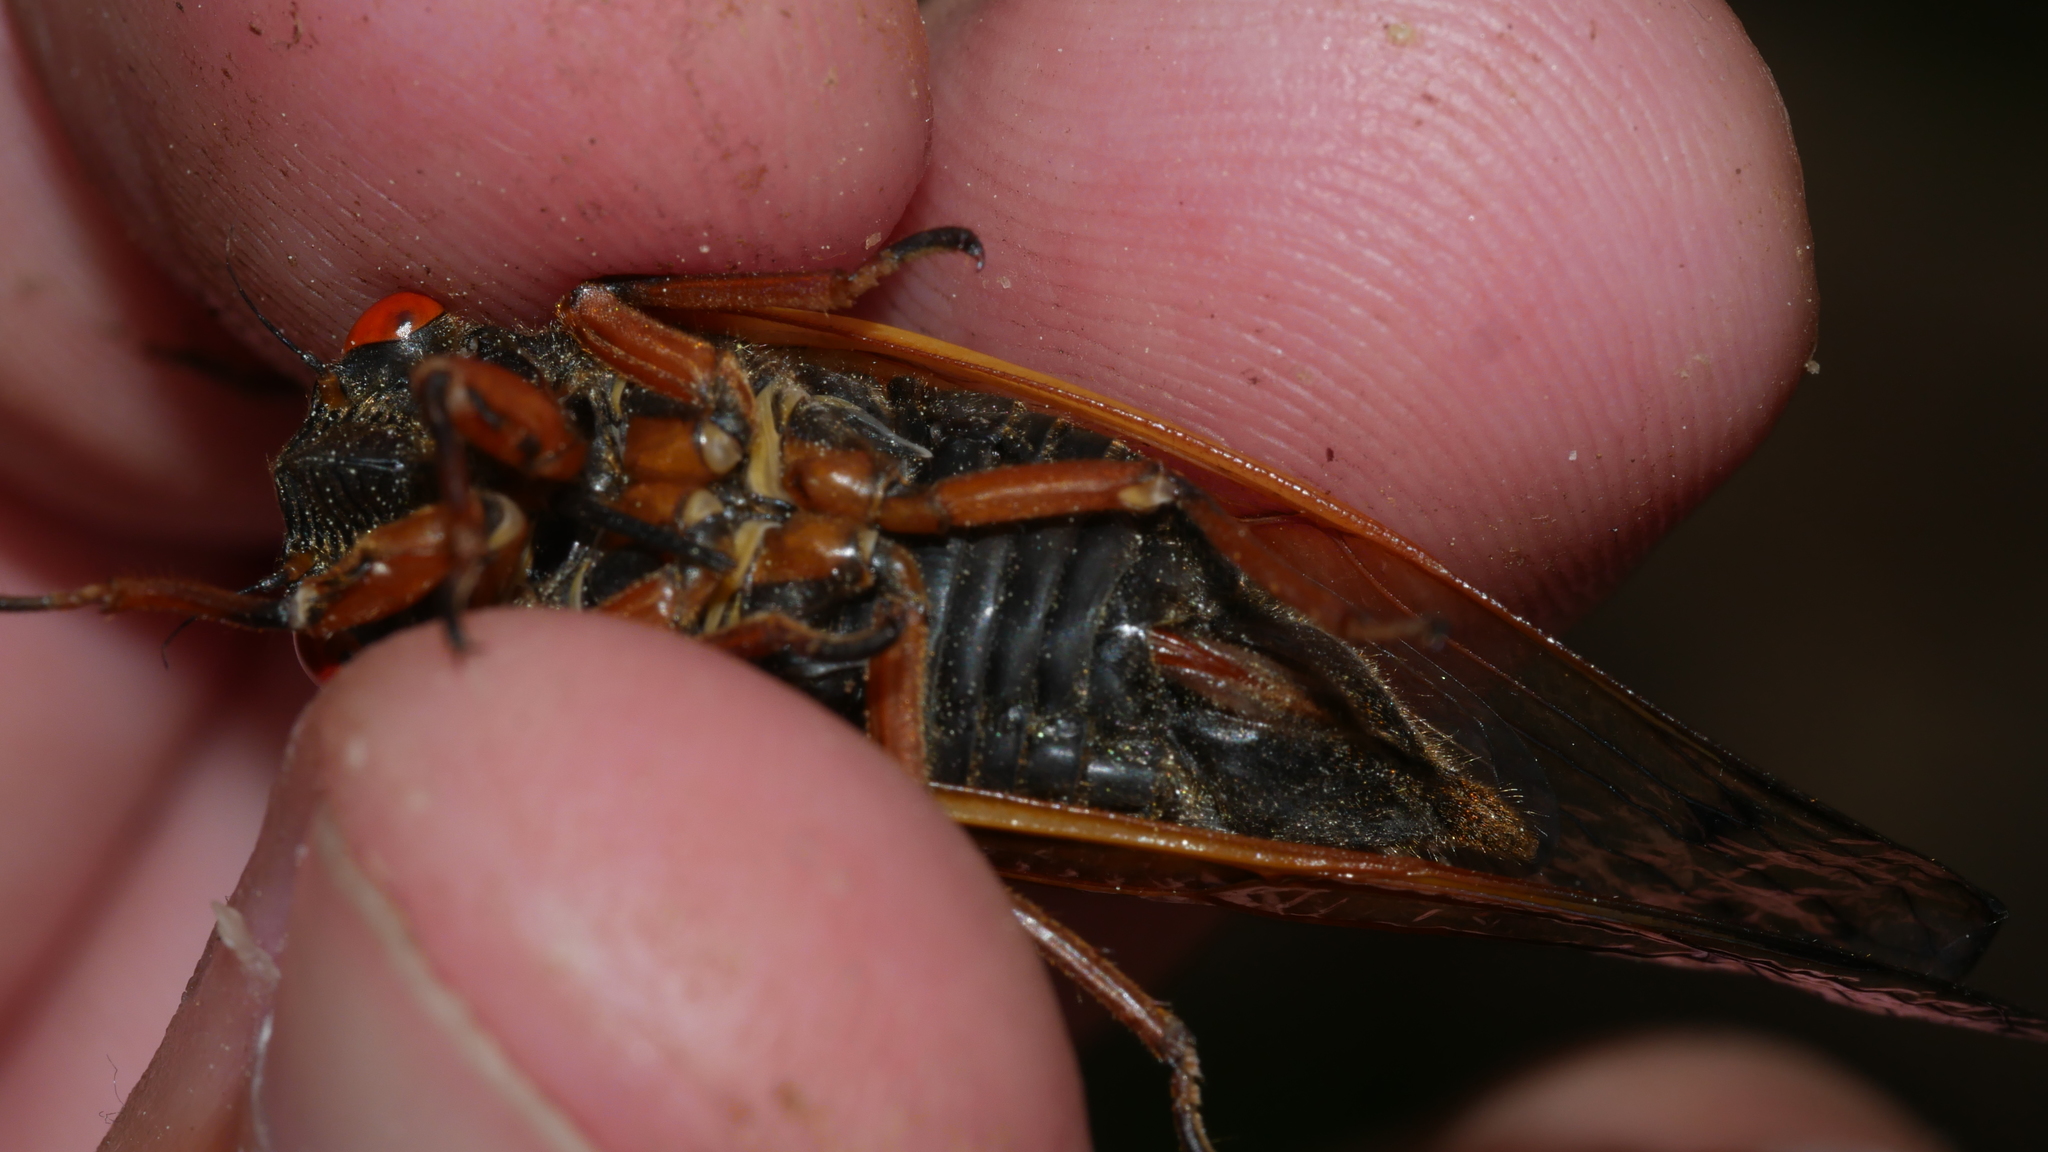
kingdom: Animalia
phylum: Arthropoda
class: Insecta
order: Hemiptera
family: Cicadidae
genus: Magicicada
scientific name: Magicicada cassini
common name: Cassin's 17-year cicada
